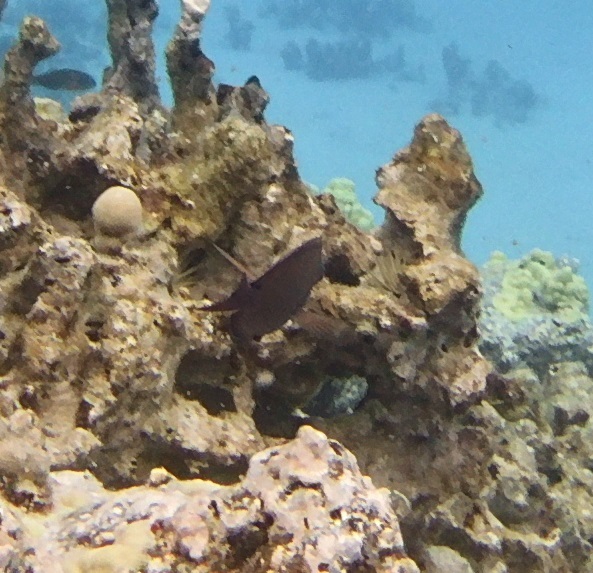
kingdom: Animalia
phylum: Chordata
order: Perciformes
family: Acanthuridae
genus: Acanthurus
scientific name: Acanthurus nigrofuscus
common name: Blackspot surgeonfish
